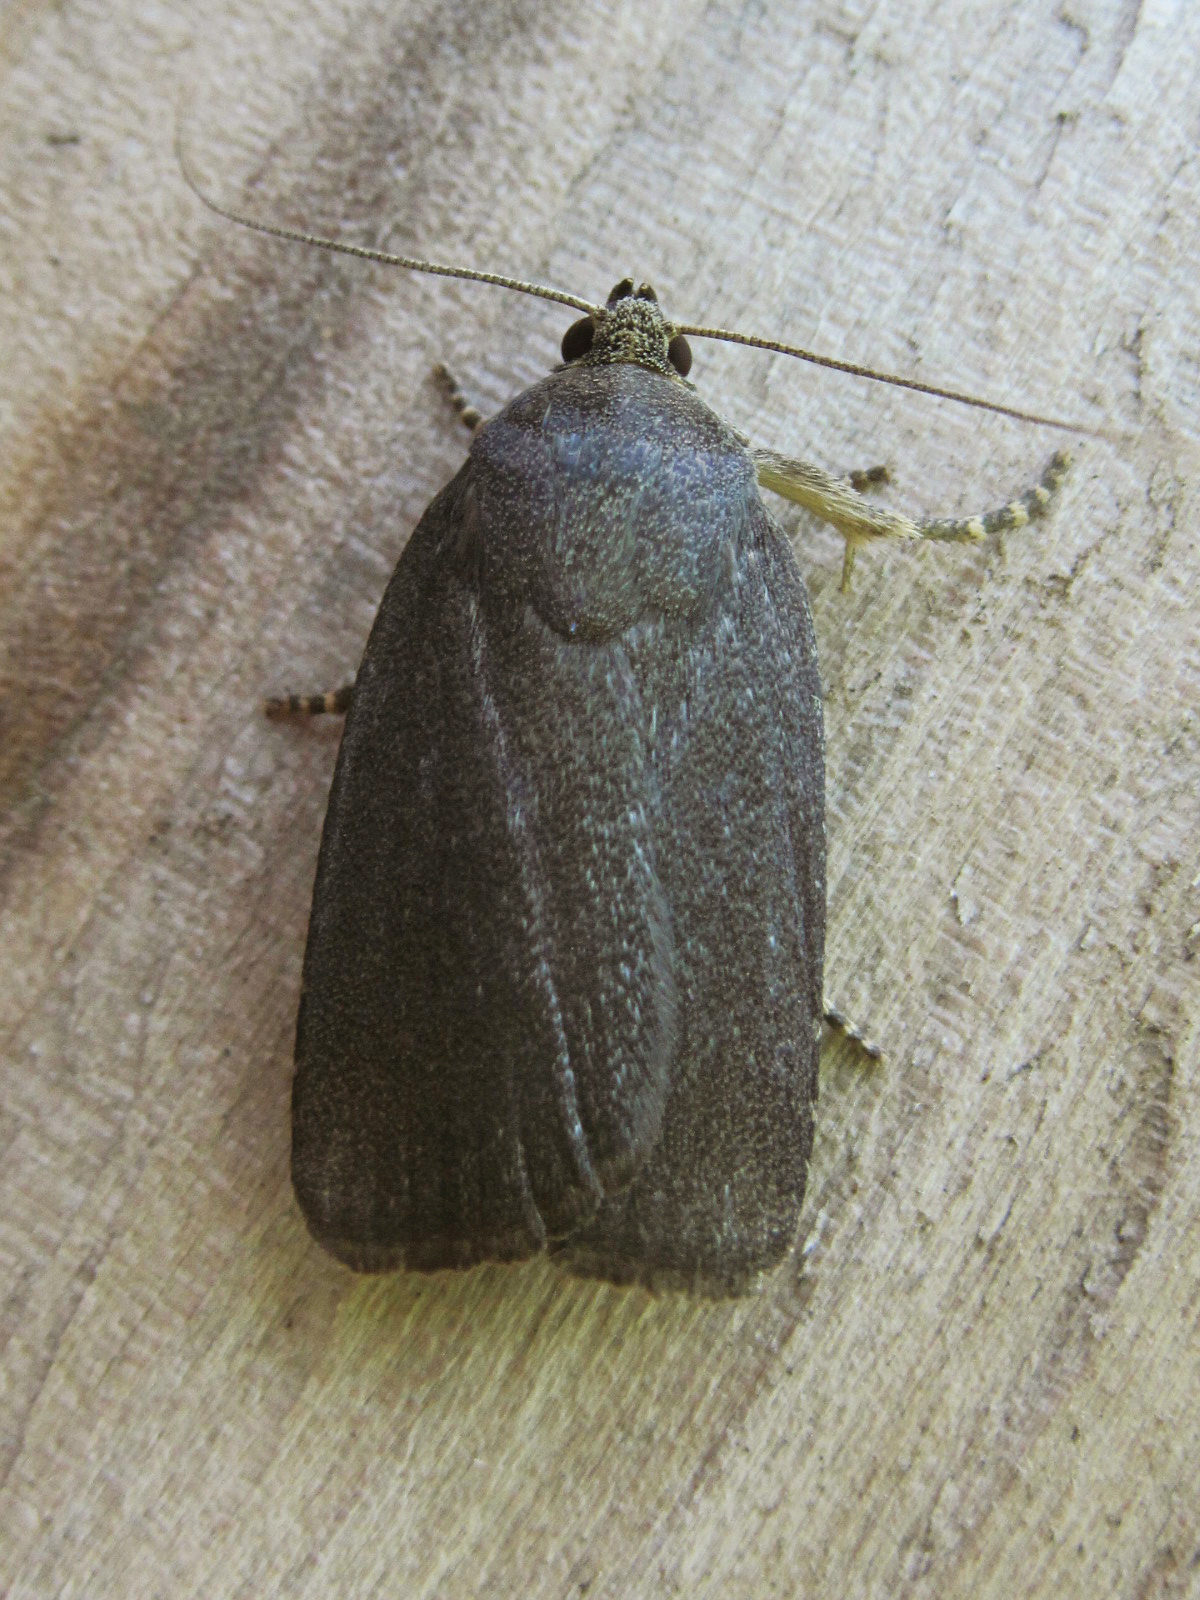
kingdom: Animalia
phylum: Arthropoda
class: Insecta
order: Lepidoptera
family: Noctuidae
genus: Amphipyra
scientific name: Amphipyra tetra
